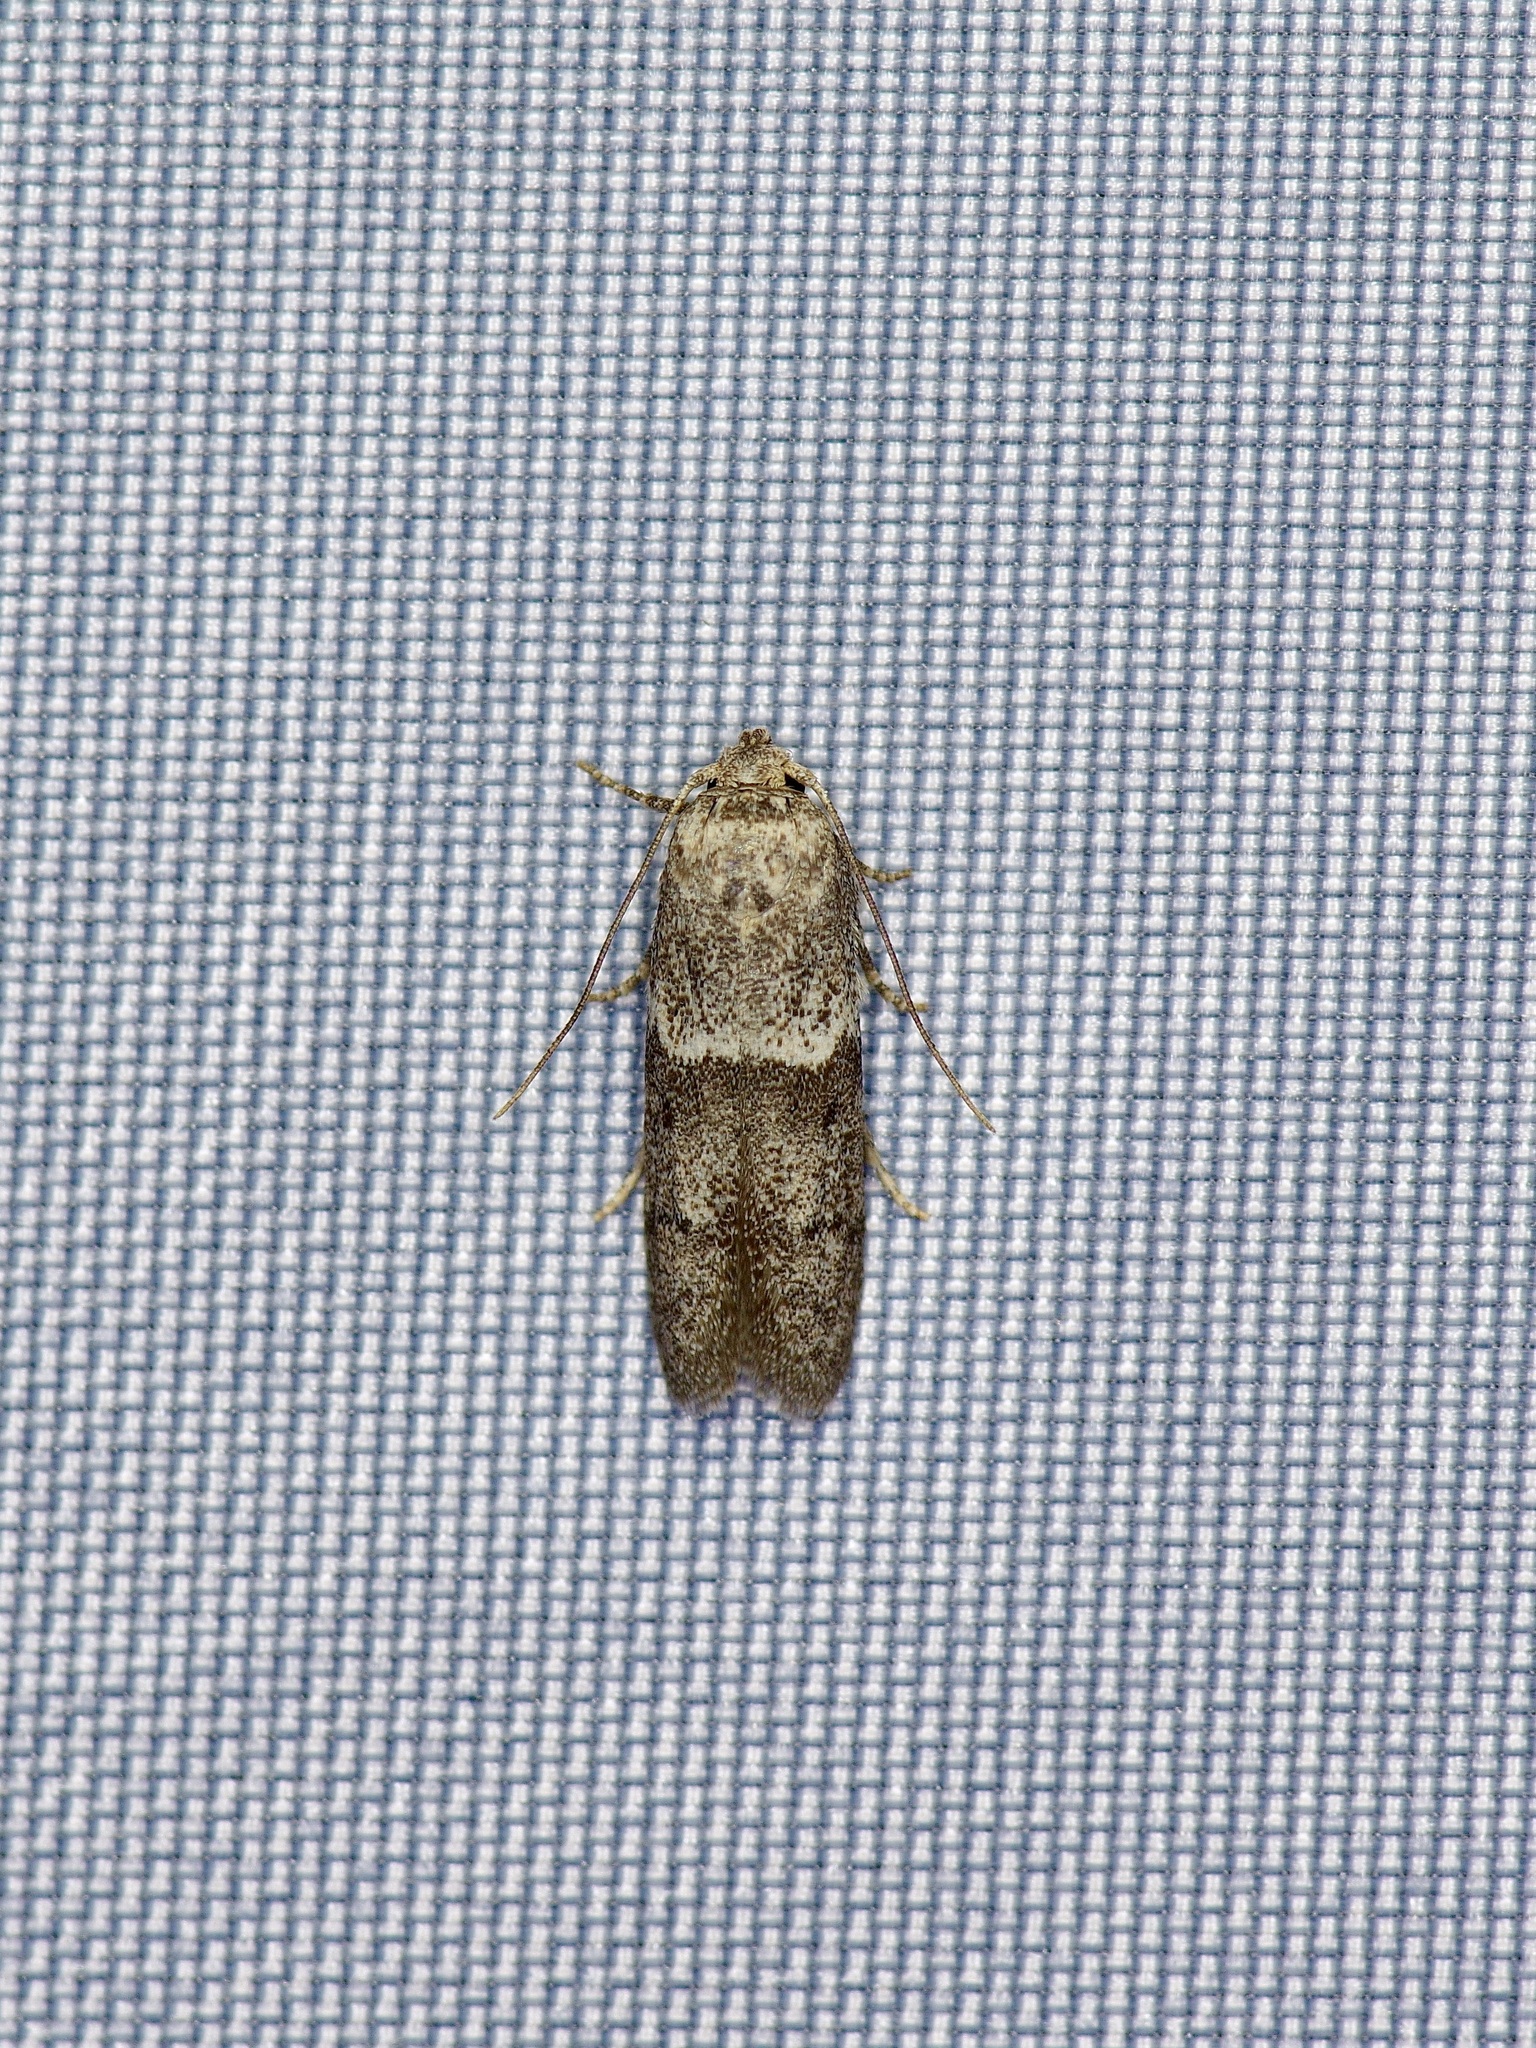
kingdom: Animalia
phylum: Arthropoda
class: Insecta
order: Lepidoptera
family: Blastobasidae
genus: Blastobasis
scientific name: Blastobasis glandulella
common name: Acorn moth
